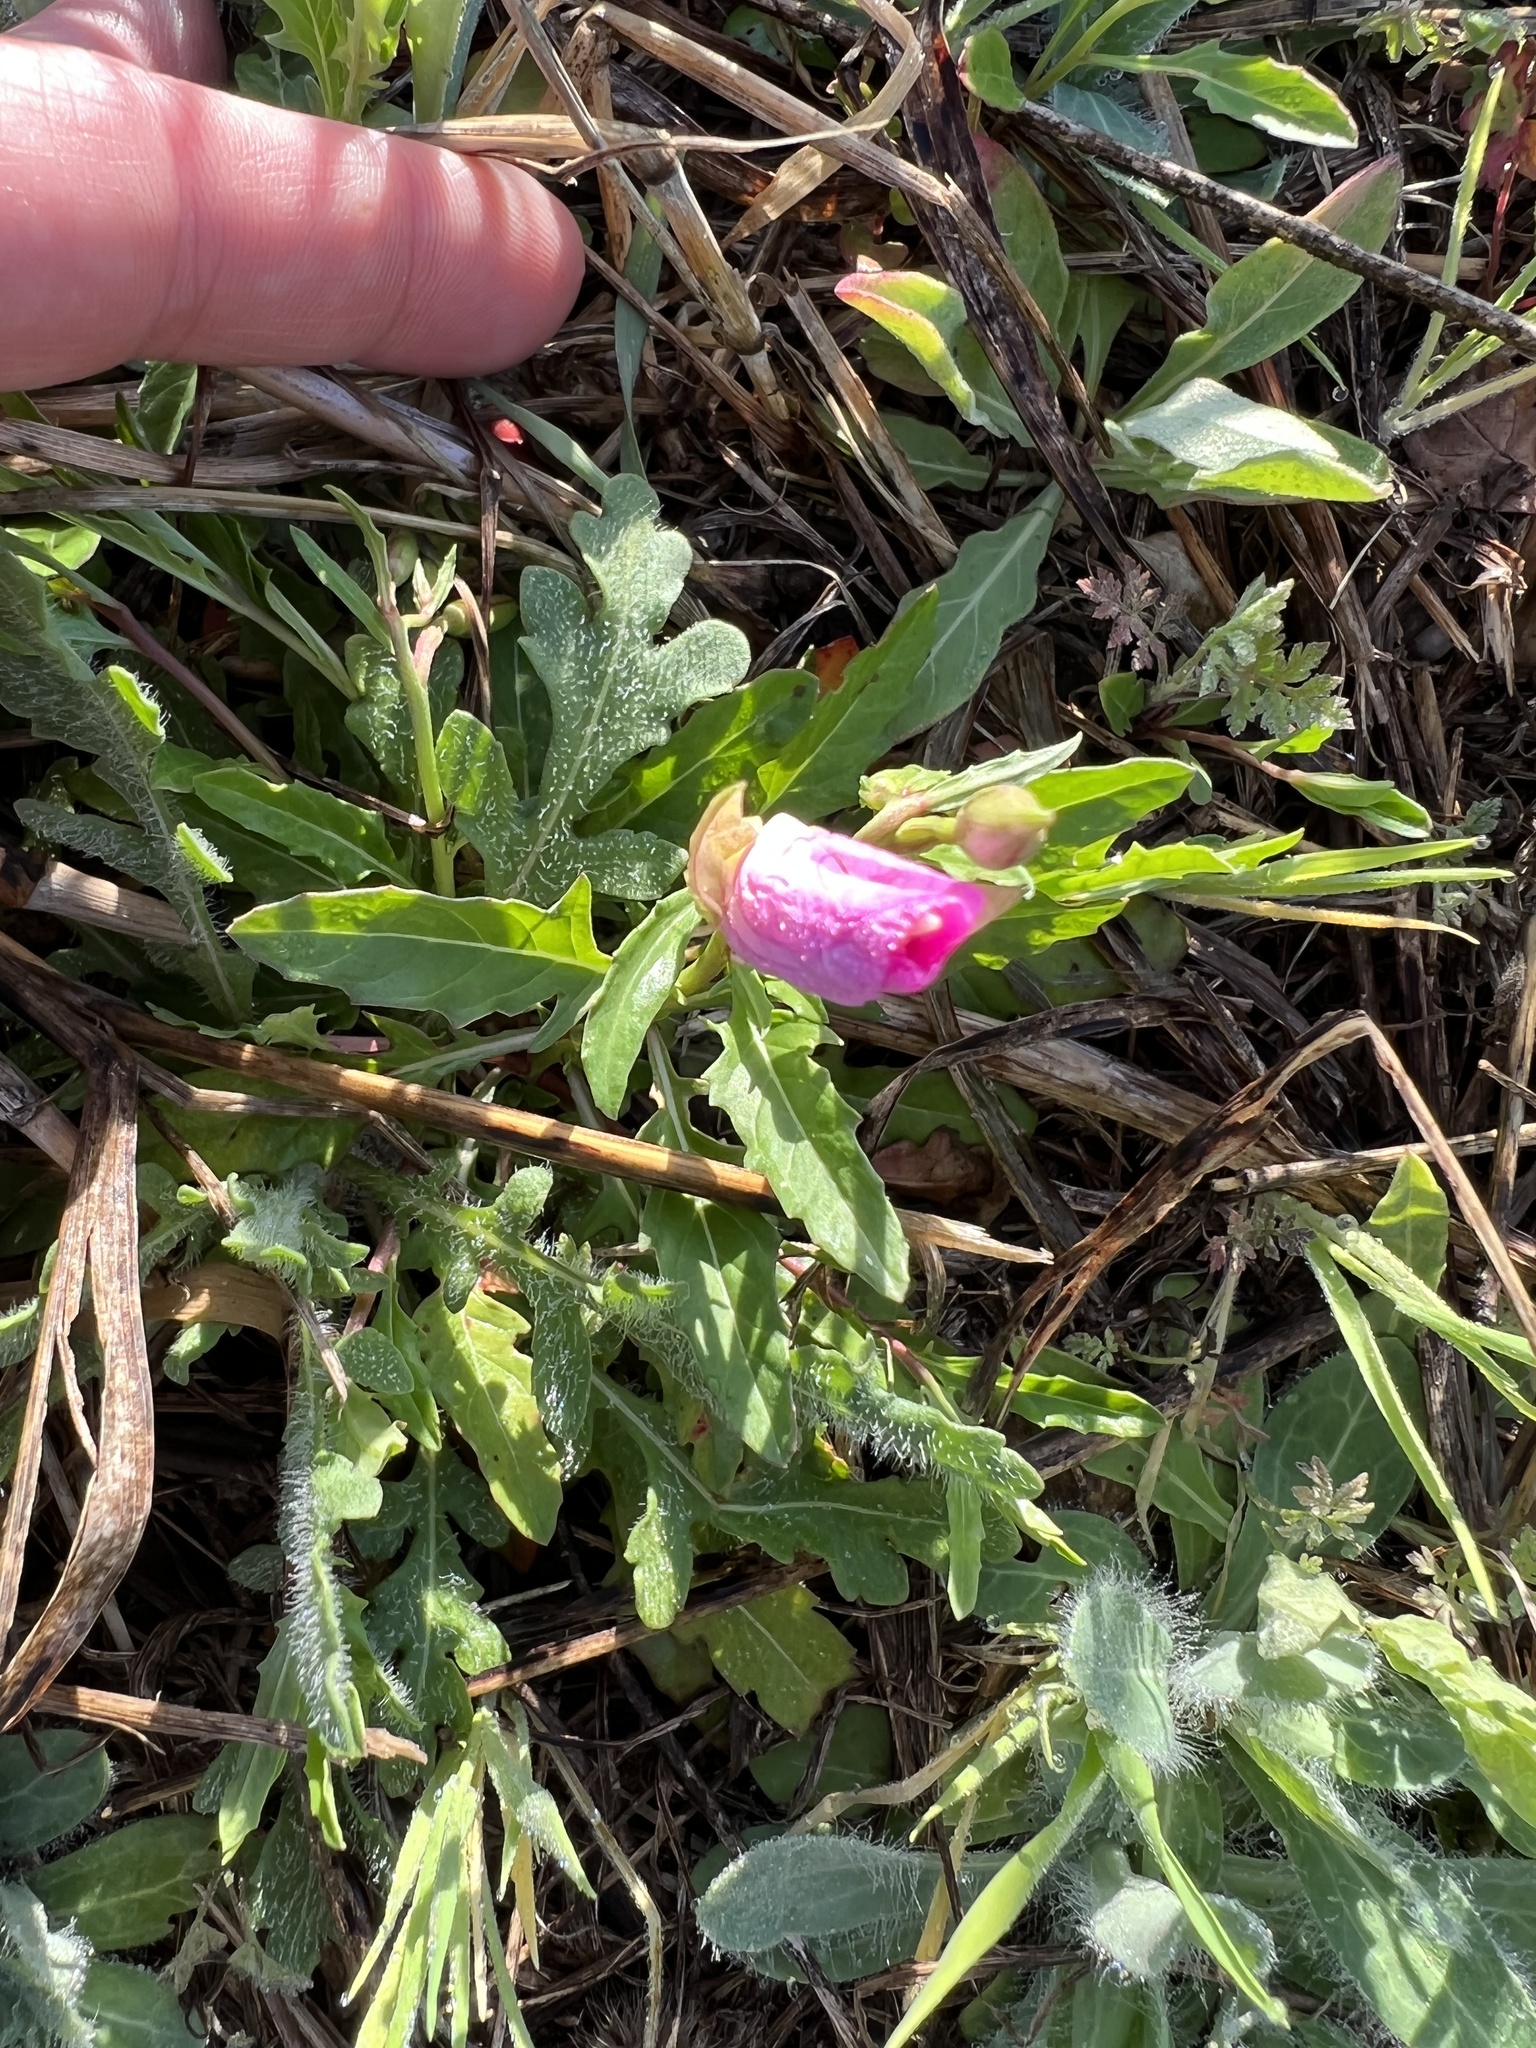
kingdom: Plantae
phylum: Tracheophyta
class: Magnoliopsida
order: Myrtales
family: Onagraceae
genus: Oenothera
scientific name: Oenothera speciosa
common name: White evening-primrose
